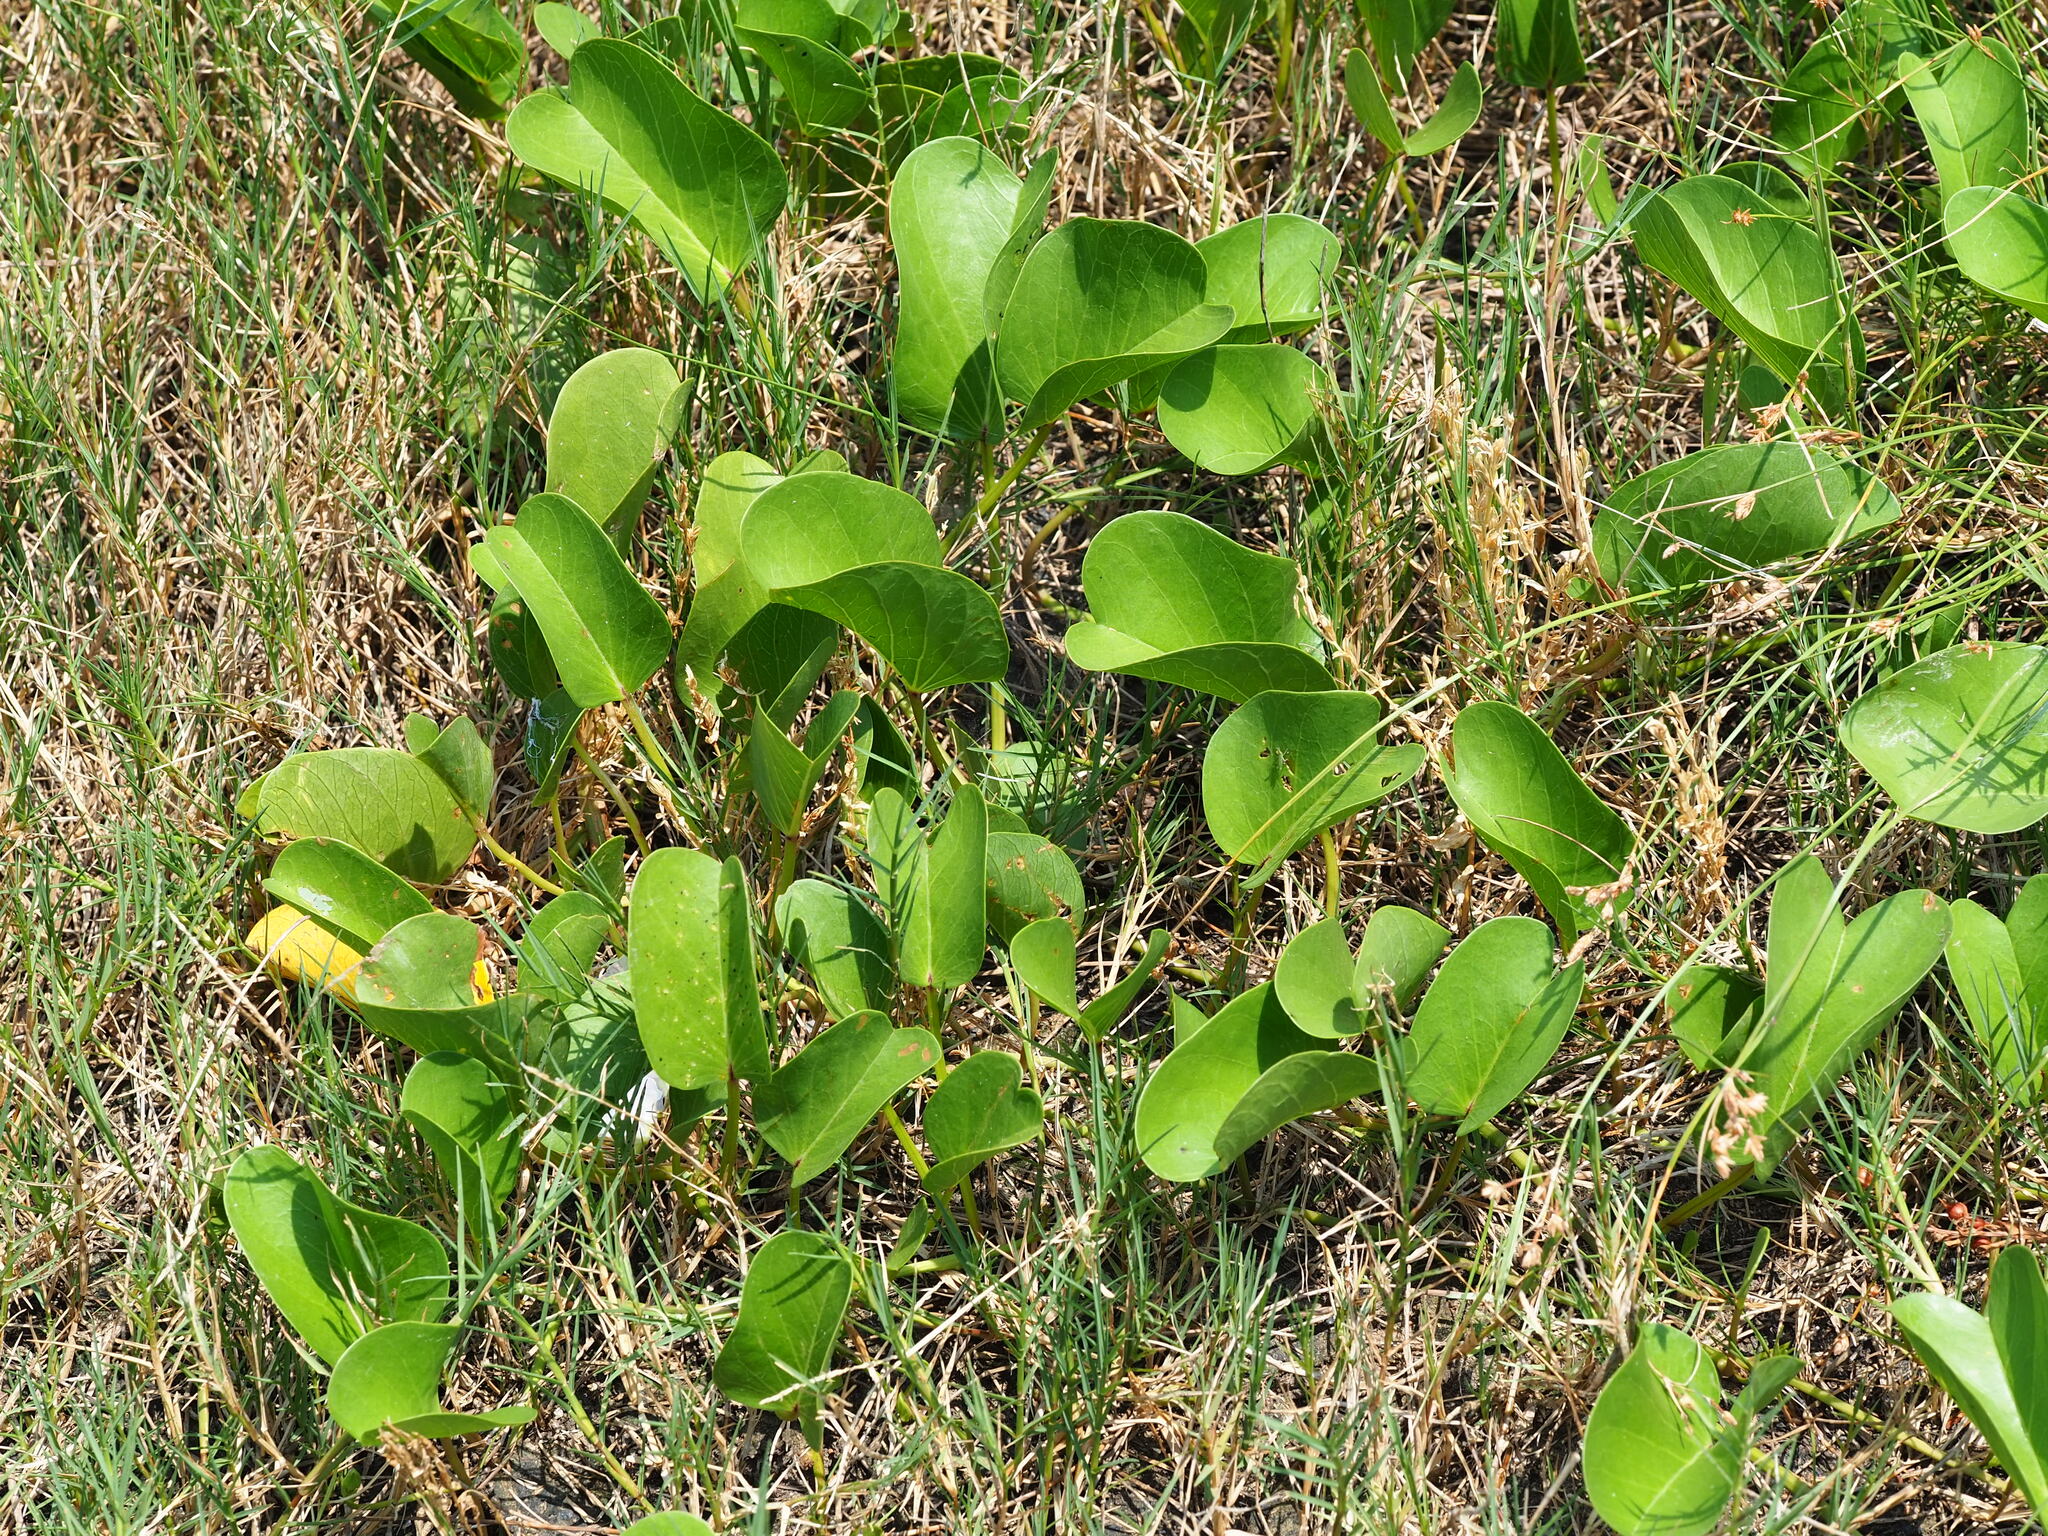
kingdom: Plantae
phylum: Tracheophyta
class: Magnoliopsida
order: Solanales
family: Convolvulaceae
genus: Ipomoea
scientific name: Ipomoea pes-caprae
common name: Beach morning glory
